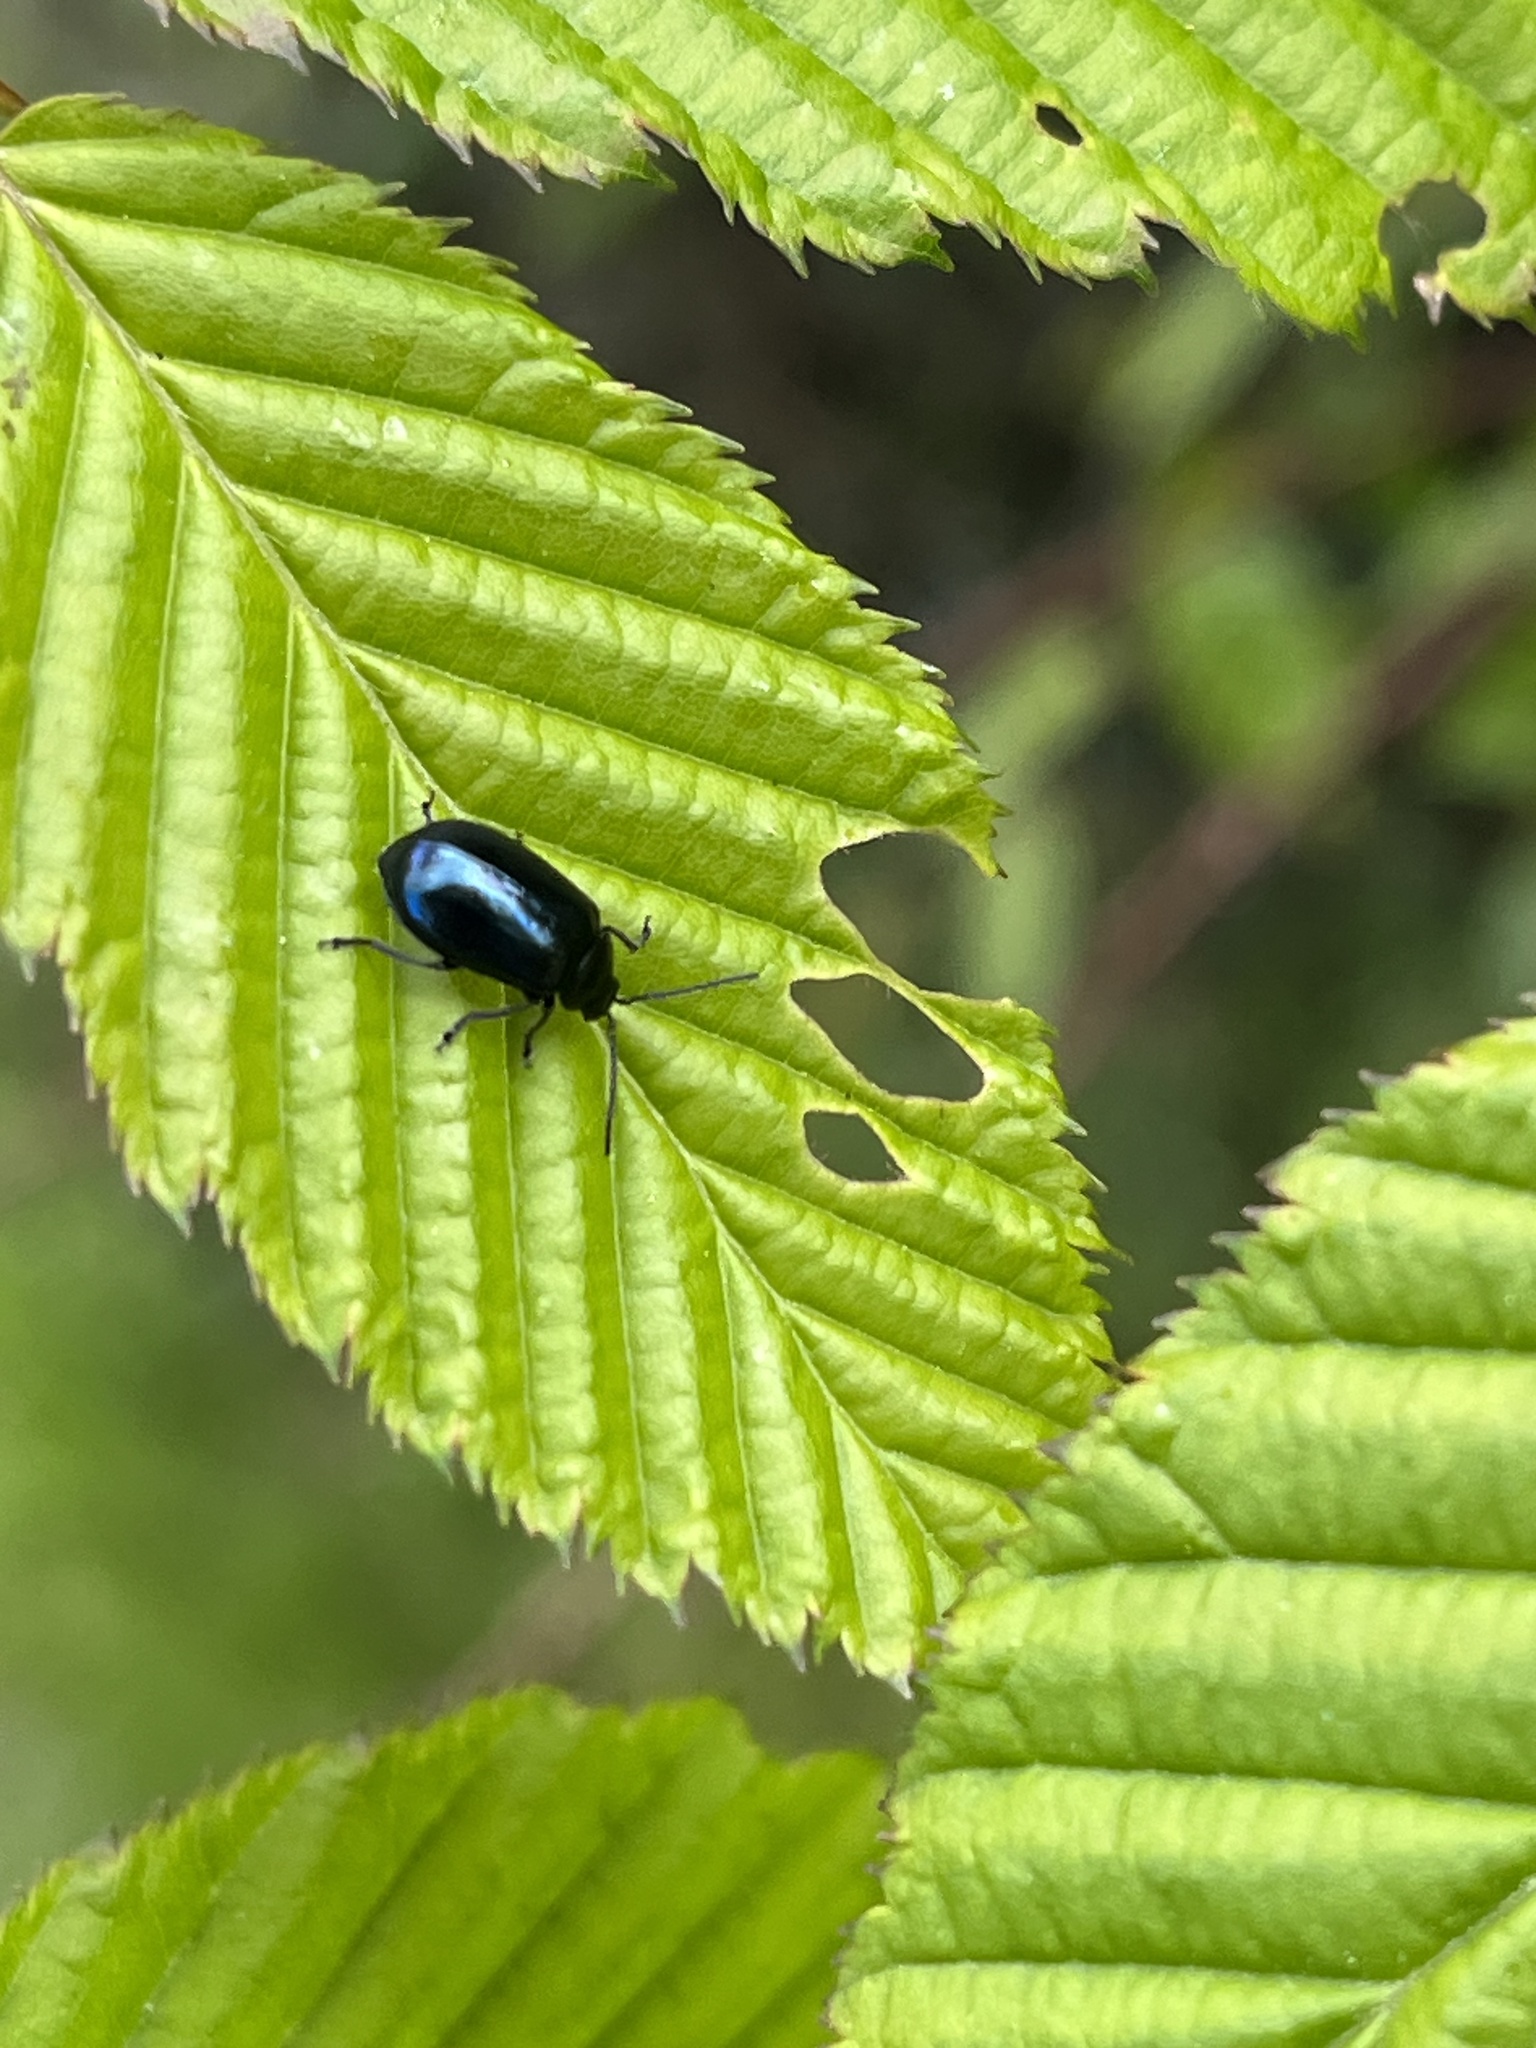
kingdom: Animalia
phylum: Arthropoda
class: Insecta
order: Coleoptera
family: Chrysomelidae
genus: Agelastica
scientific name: Agelastica alni
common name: Alder leaf beetle
